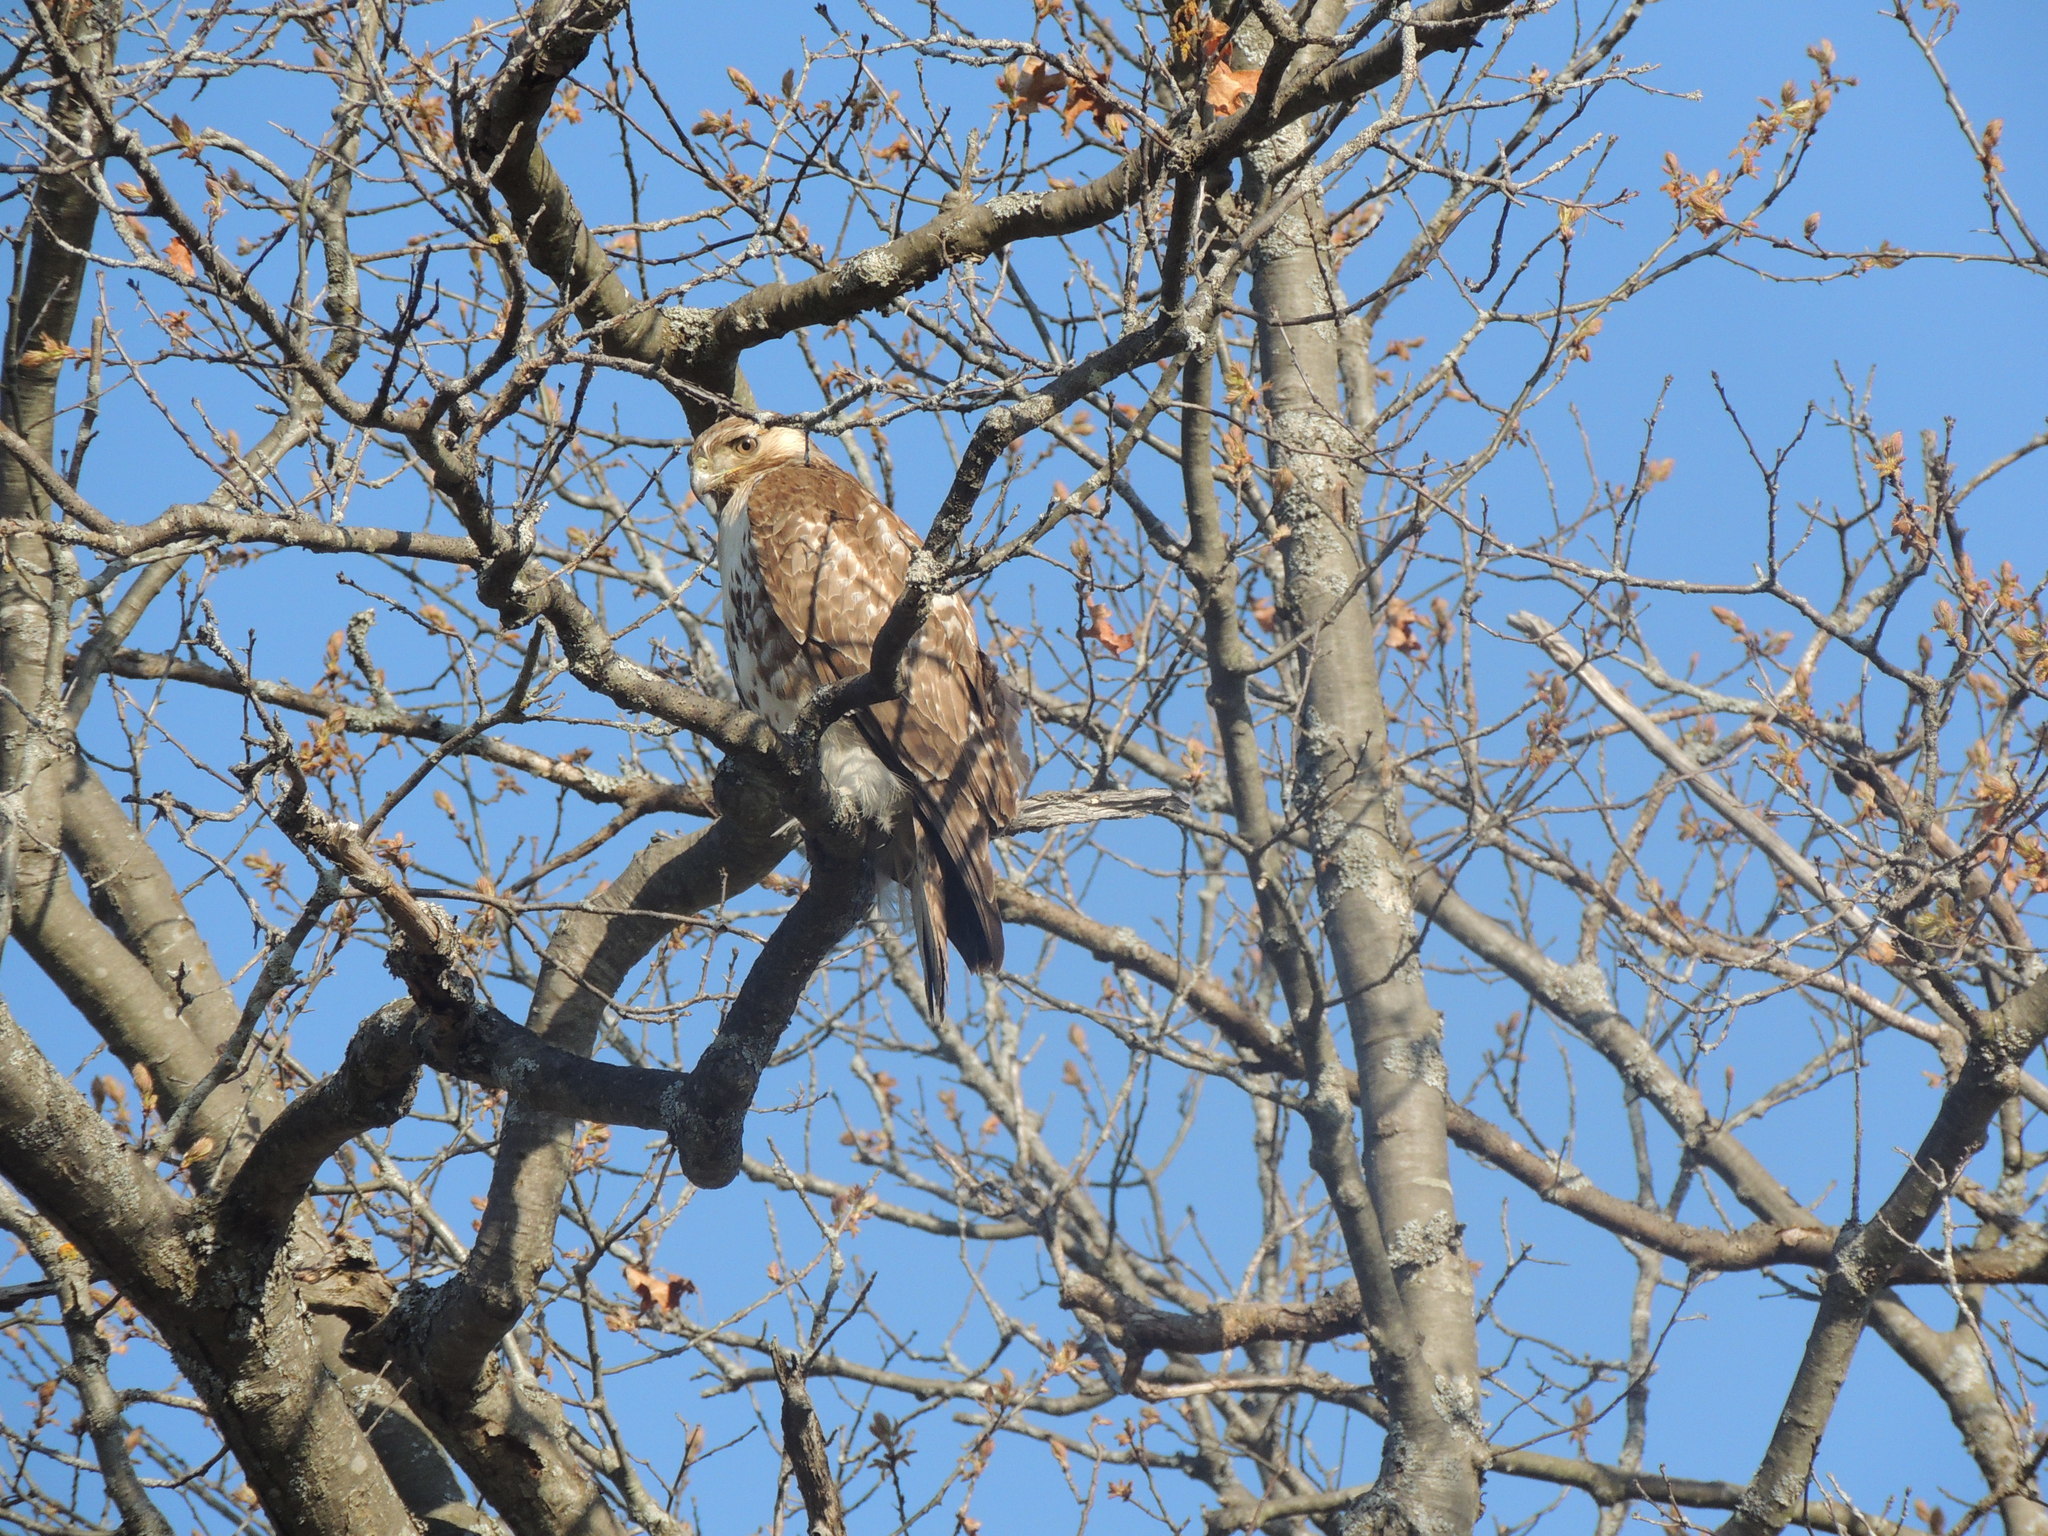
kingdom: Animalia
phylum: Chordata
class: Aves
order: Accipitriformes
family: Accipitridae
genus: Buteo
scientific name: Buteo jamaicensis
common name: Red-tailed hawk
